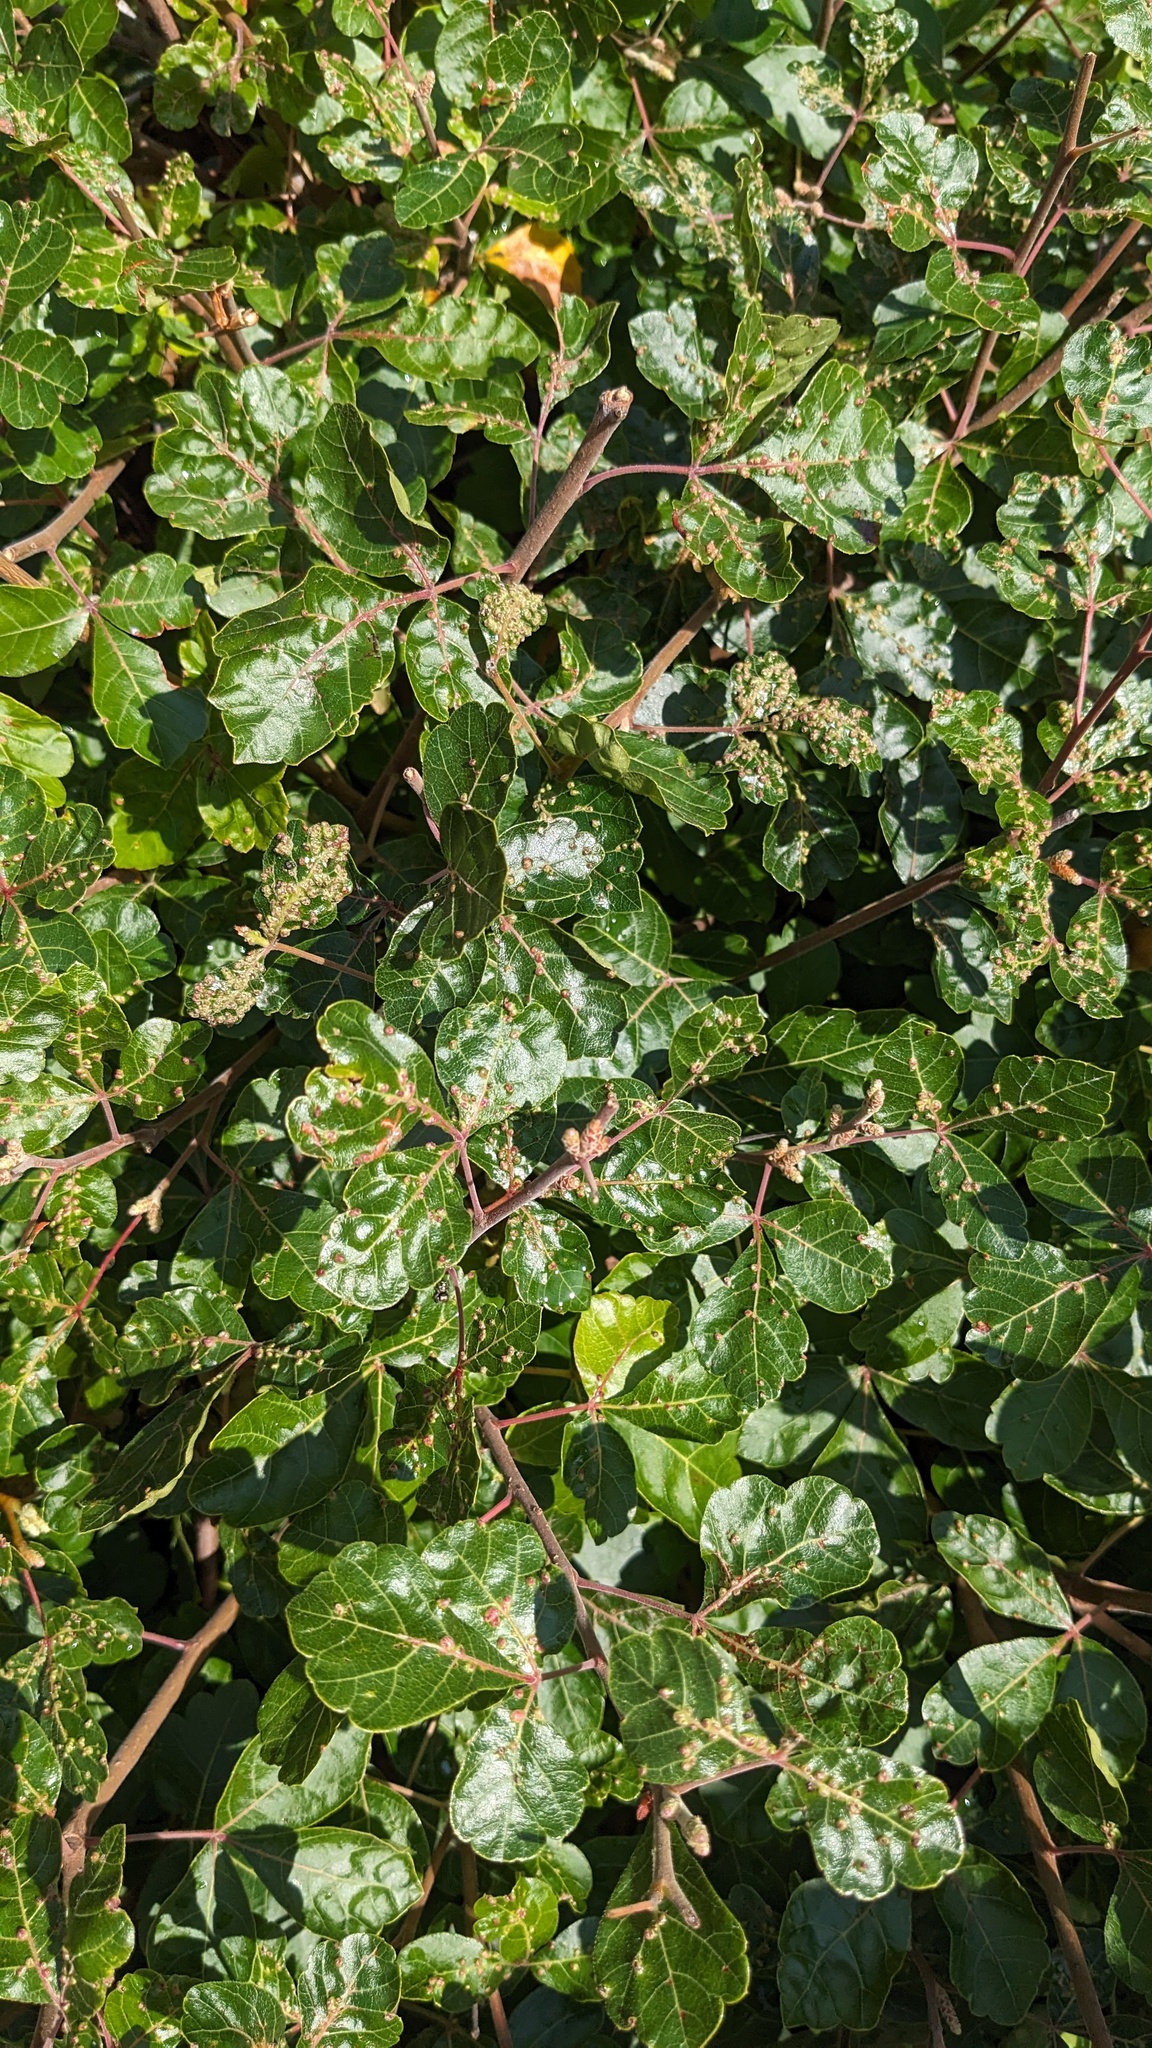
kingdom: Animalia
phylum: Arthropoda
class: Arachnida
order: Trombidiformes
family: Eriophyidae
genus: Aculops
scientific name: Aculops
